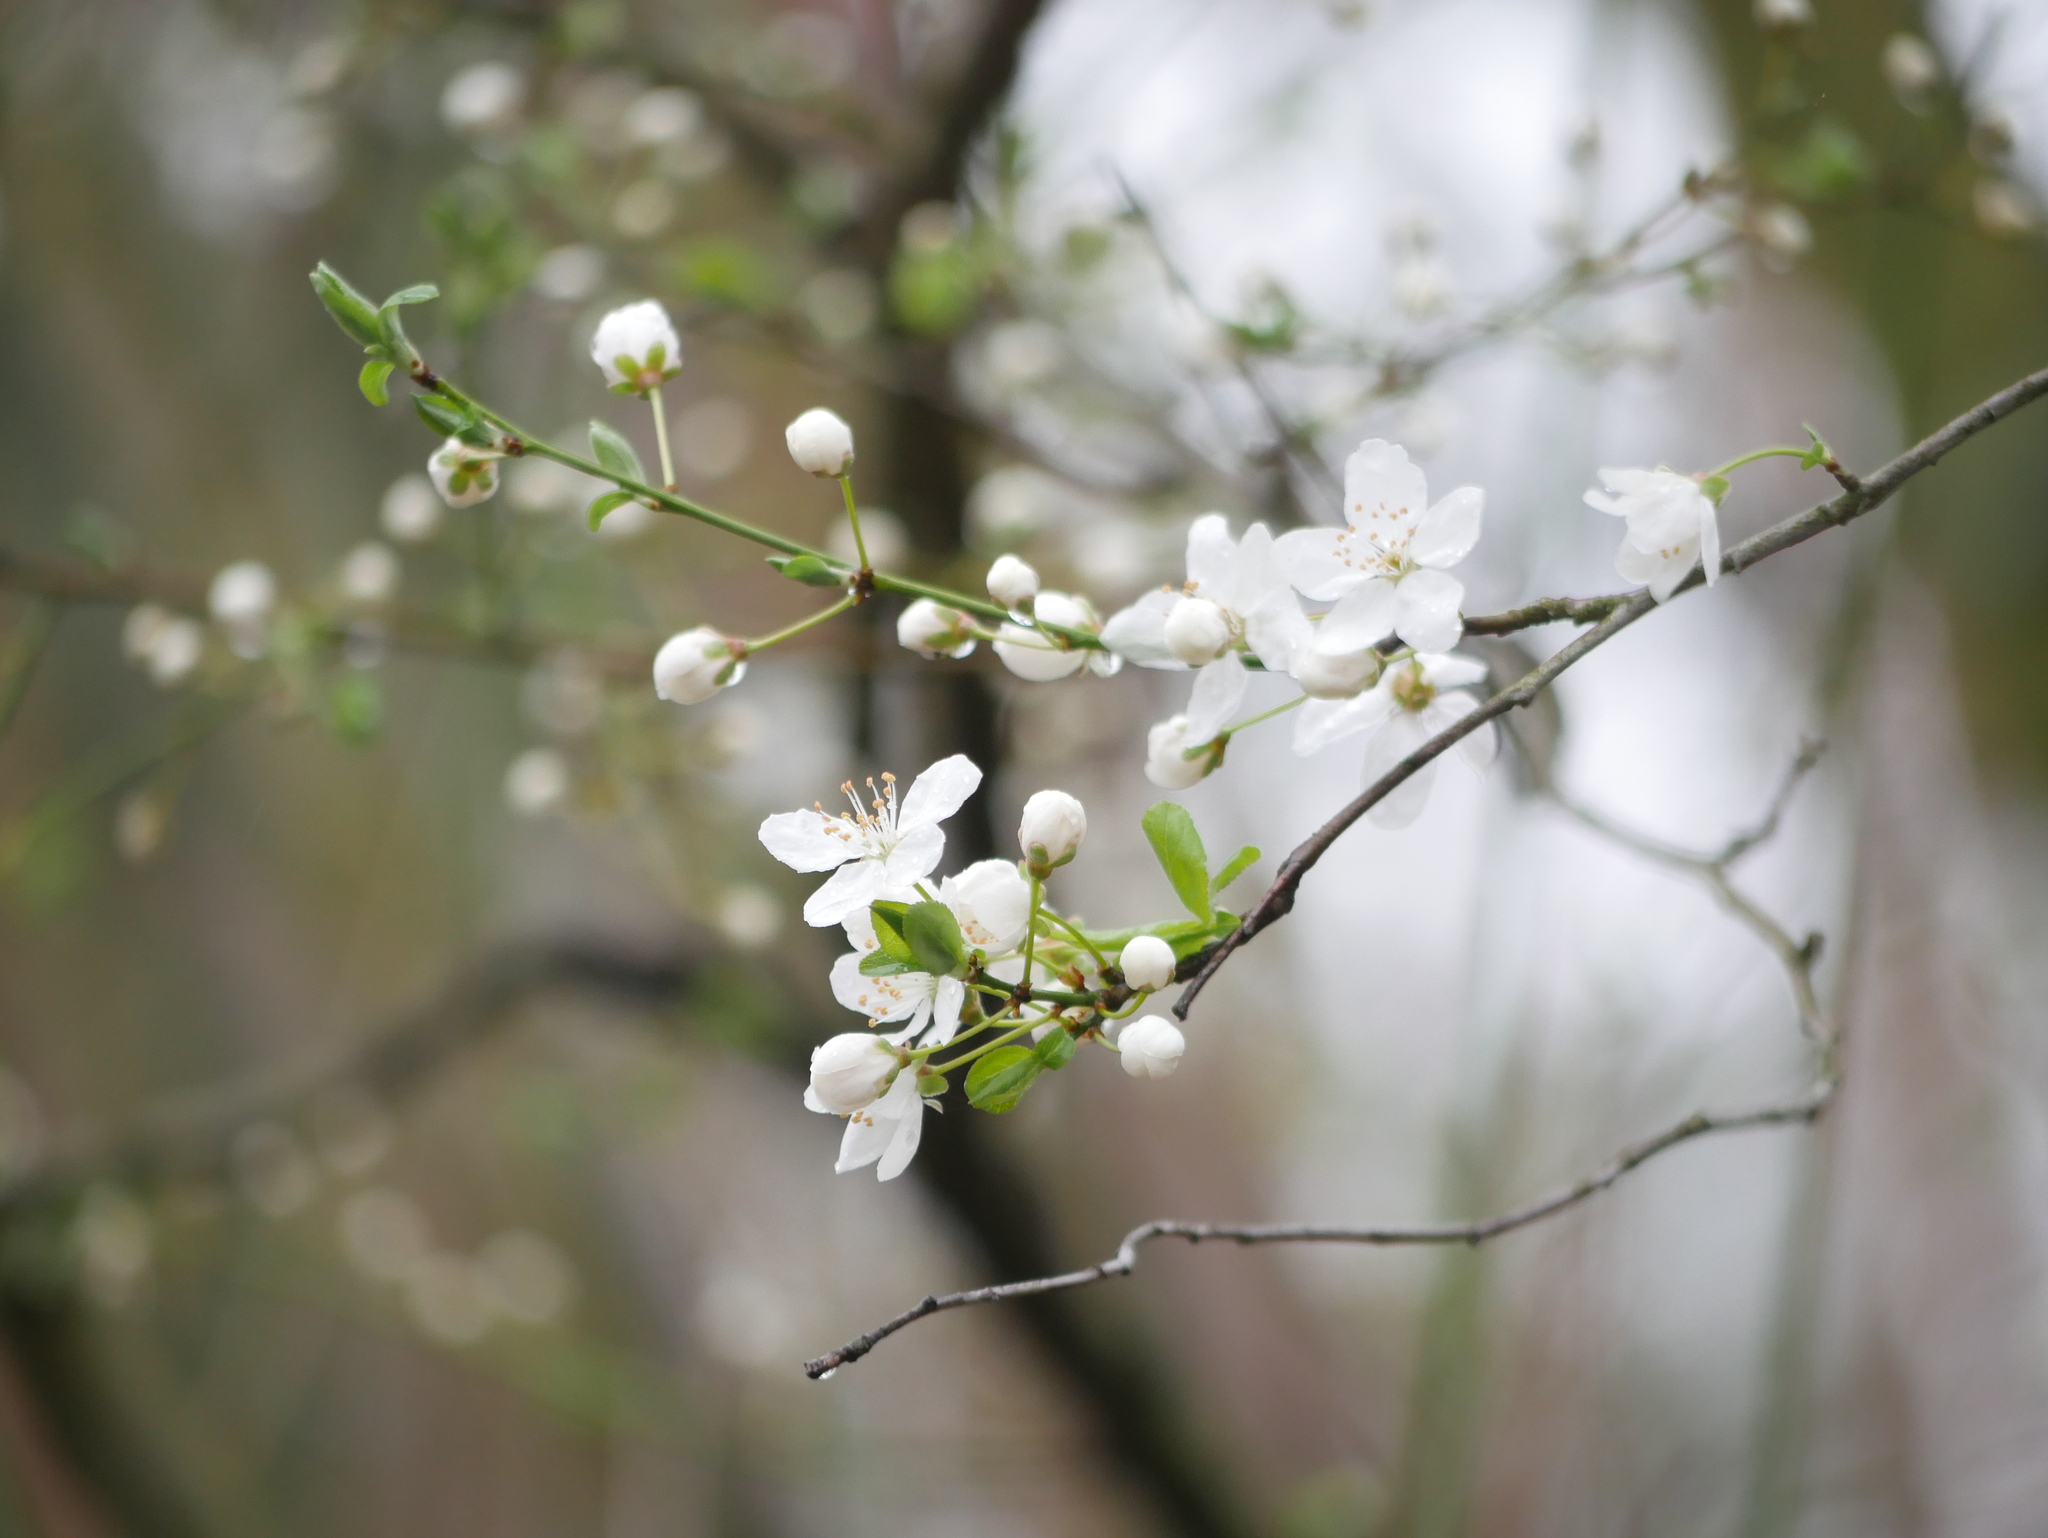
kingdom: Plantae
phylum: Tracheophyta
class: Magnoliopsida
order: Rosales
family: Rosaceae
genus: Prunus
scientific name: Prunus cerasifera
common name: Cherry plum
